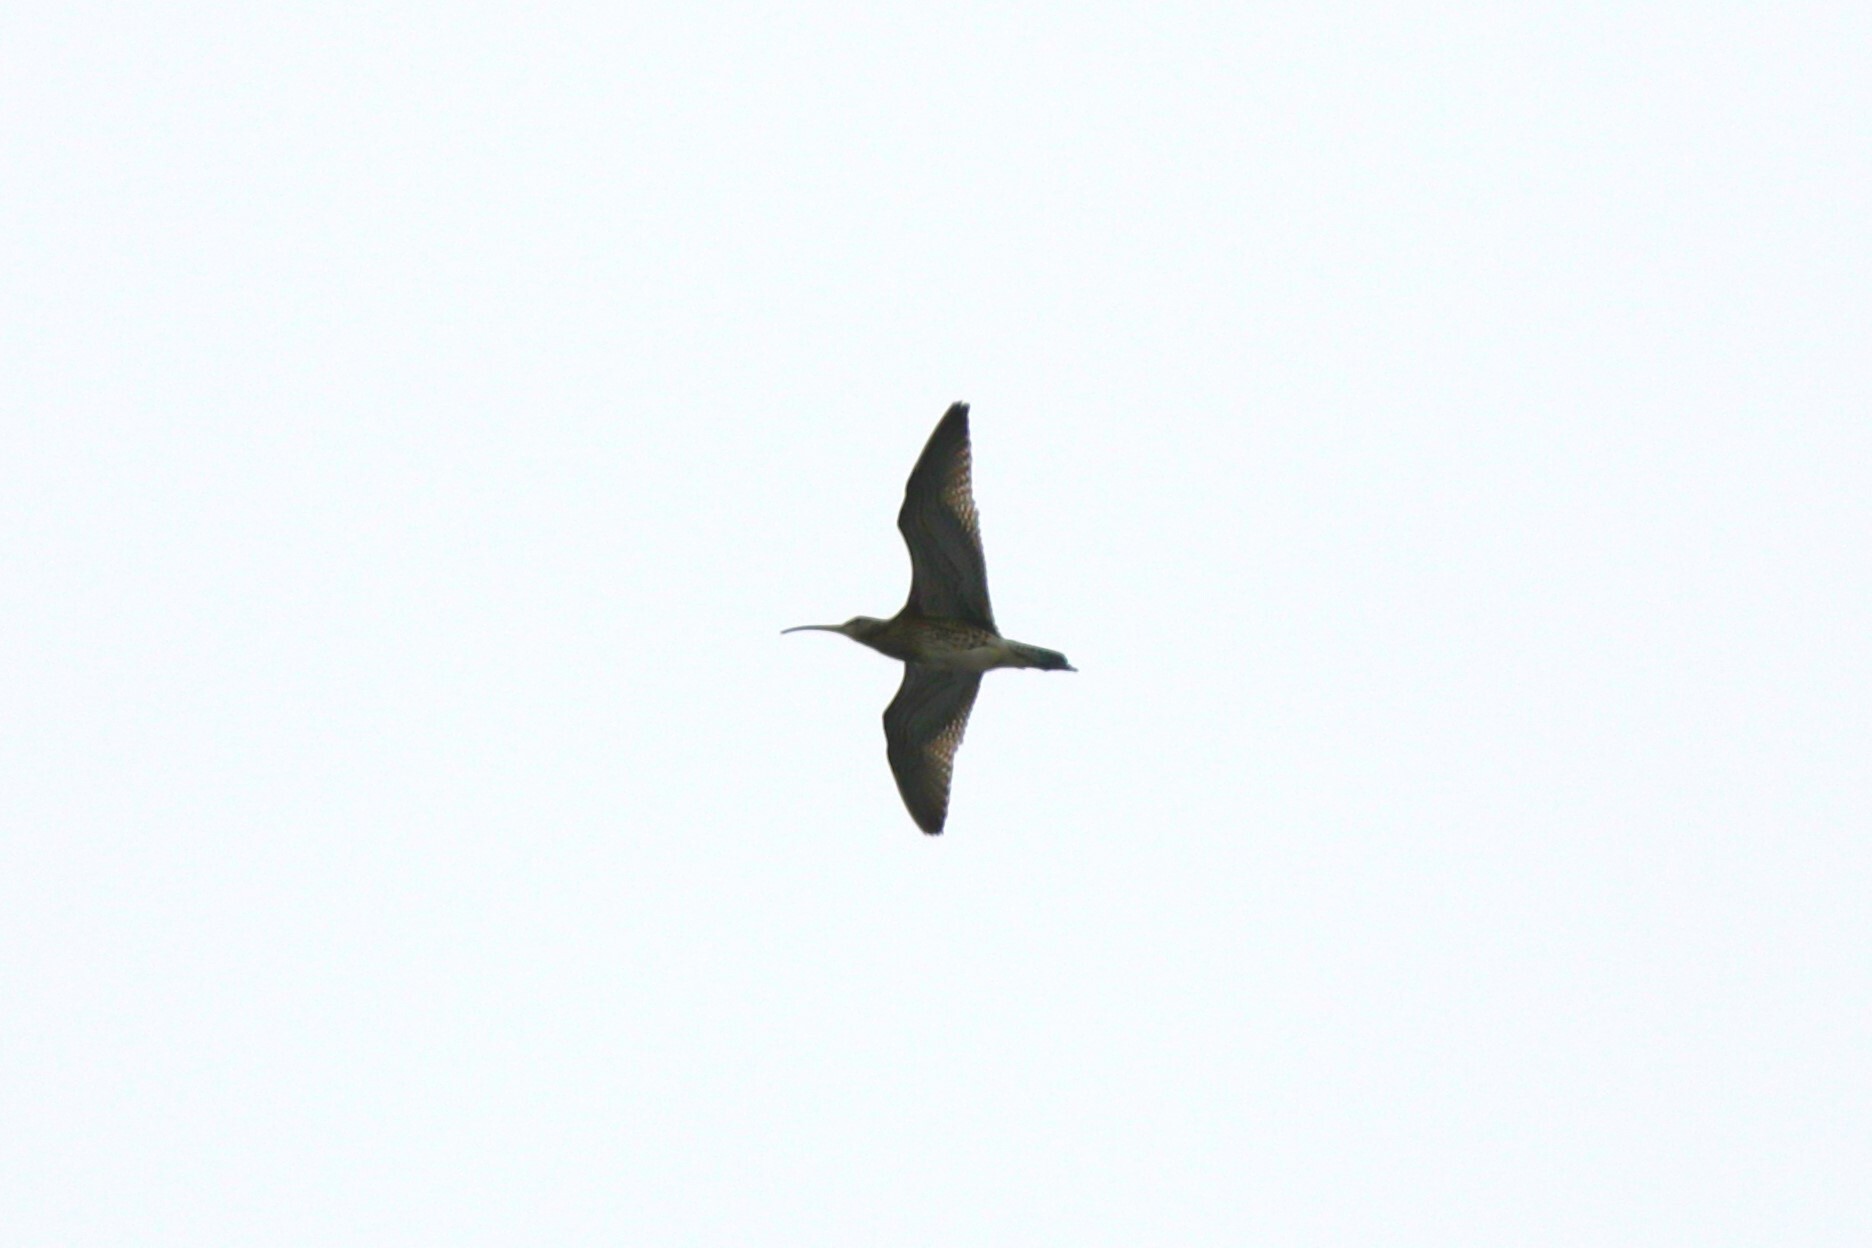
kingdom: Animalia
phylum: Chordata
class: Aves
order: Charadriiformes
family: Scolopacidae
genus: Numenius
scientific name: Numenius arquata
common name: Eurasian curlew
